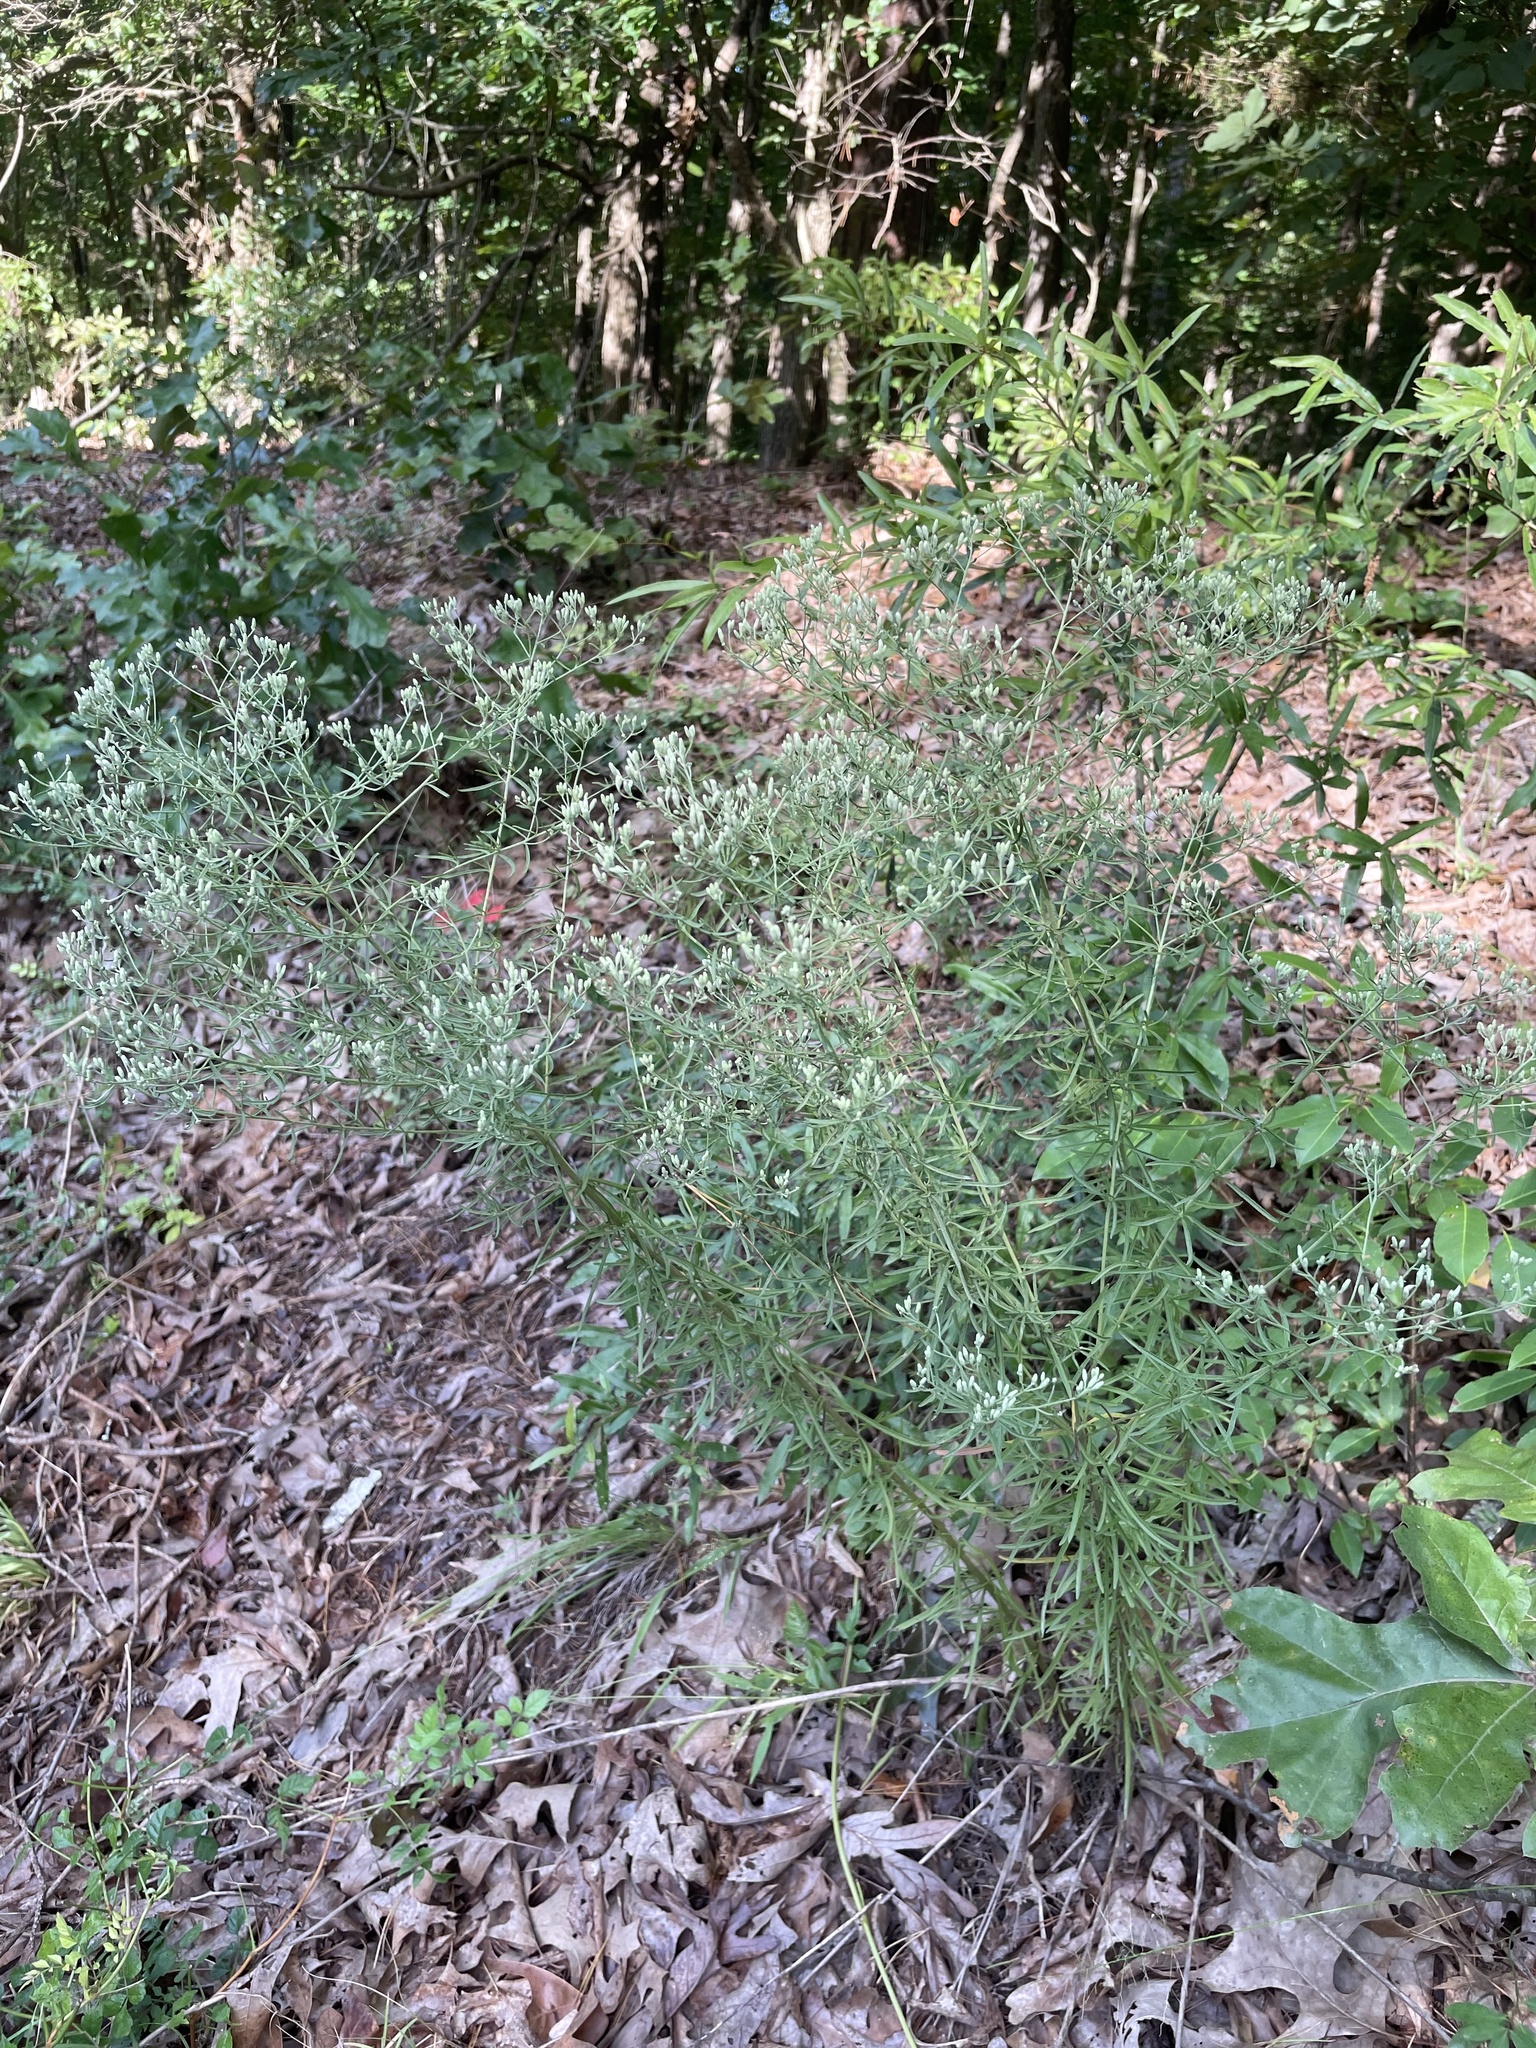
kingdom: Plantae
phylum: Tracheophyta
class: Magnoliopsida
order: Asterales
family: Asteraceae
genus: Eupatorium
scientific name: Eupatorium hyssopifolium
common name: Hyssop-leaf thoroughwort
